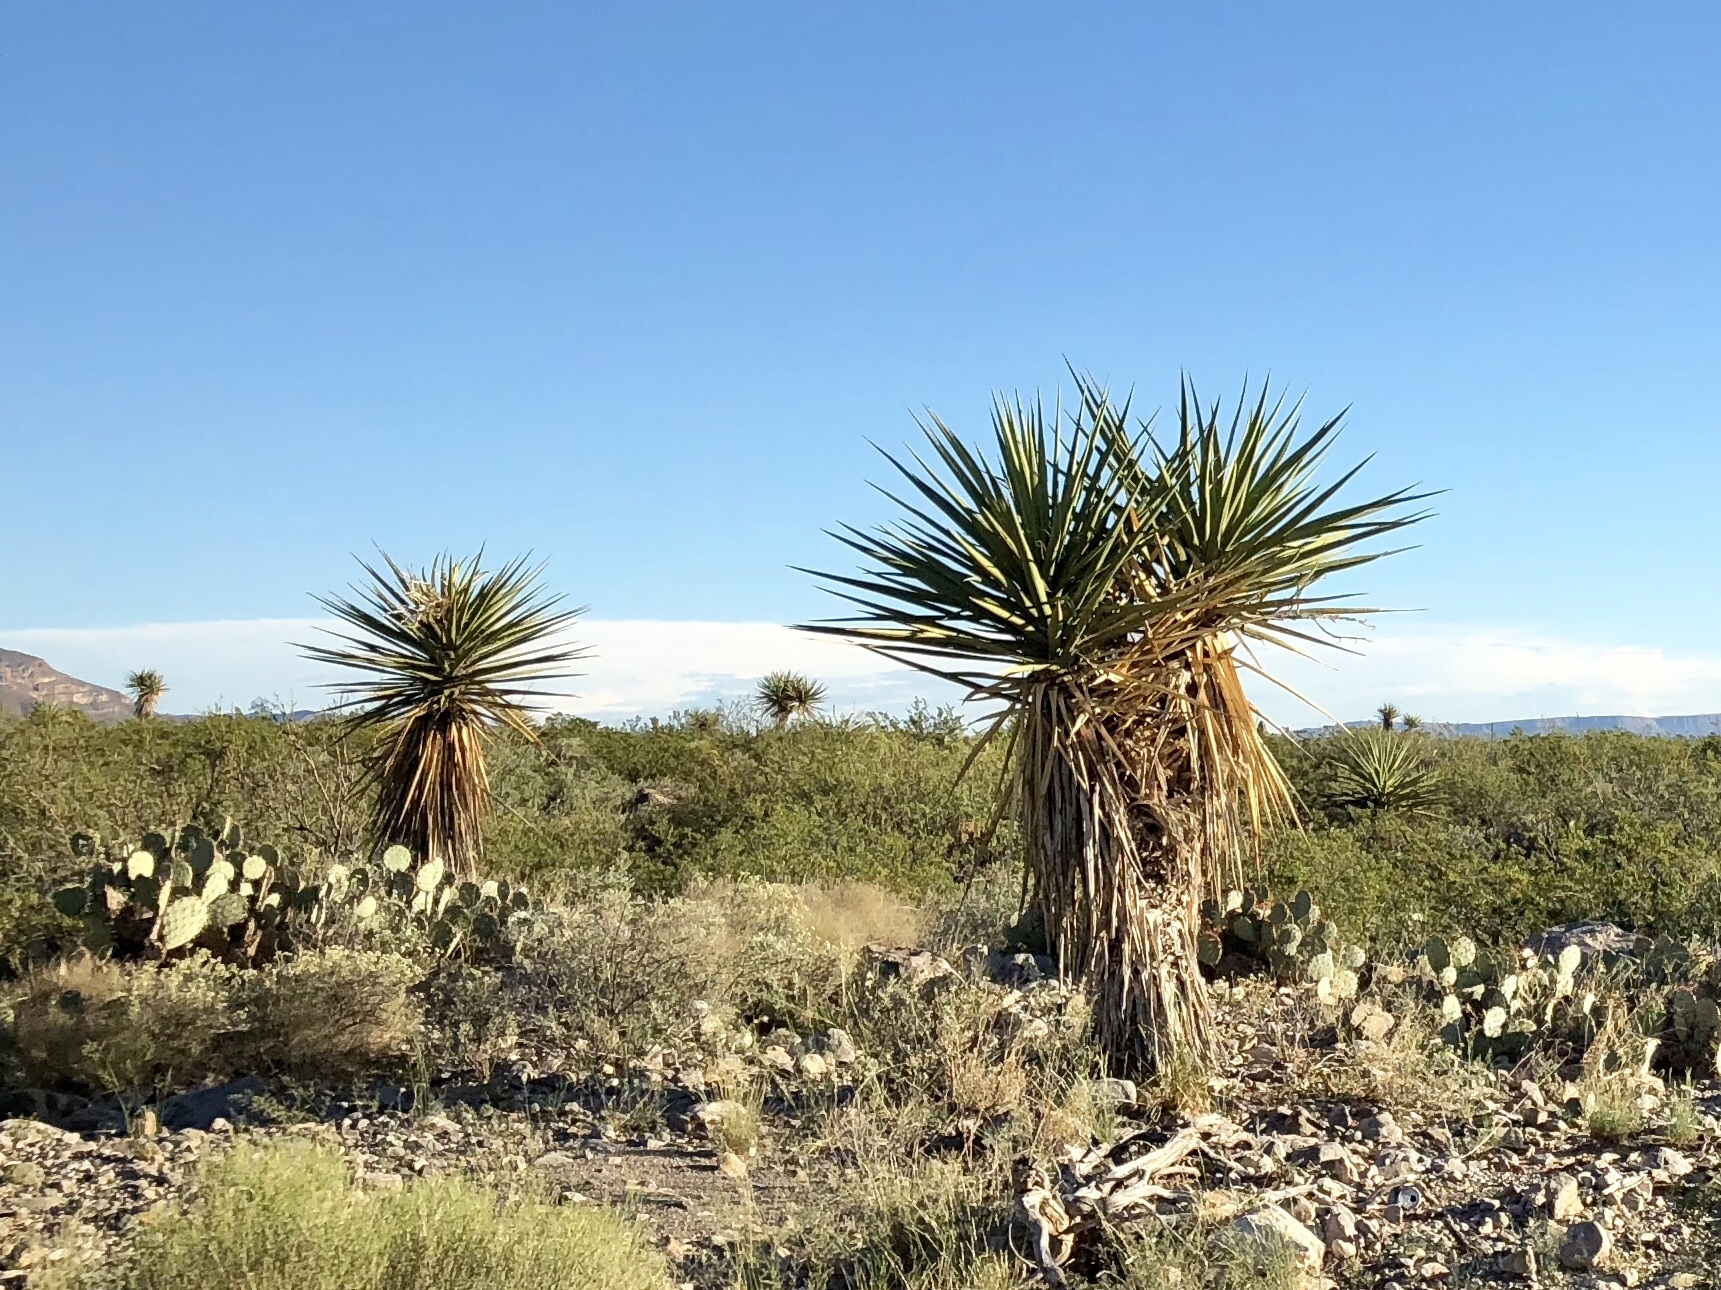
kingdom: Plantae
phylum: Tracheophyta
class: Liliopsida
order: Asparagales
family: Asparagaceae
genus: Yucca
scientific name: Yucca treculiana
